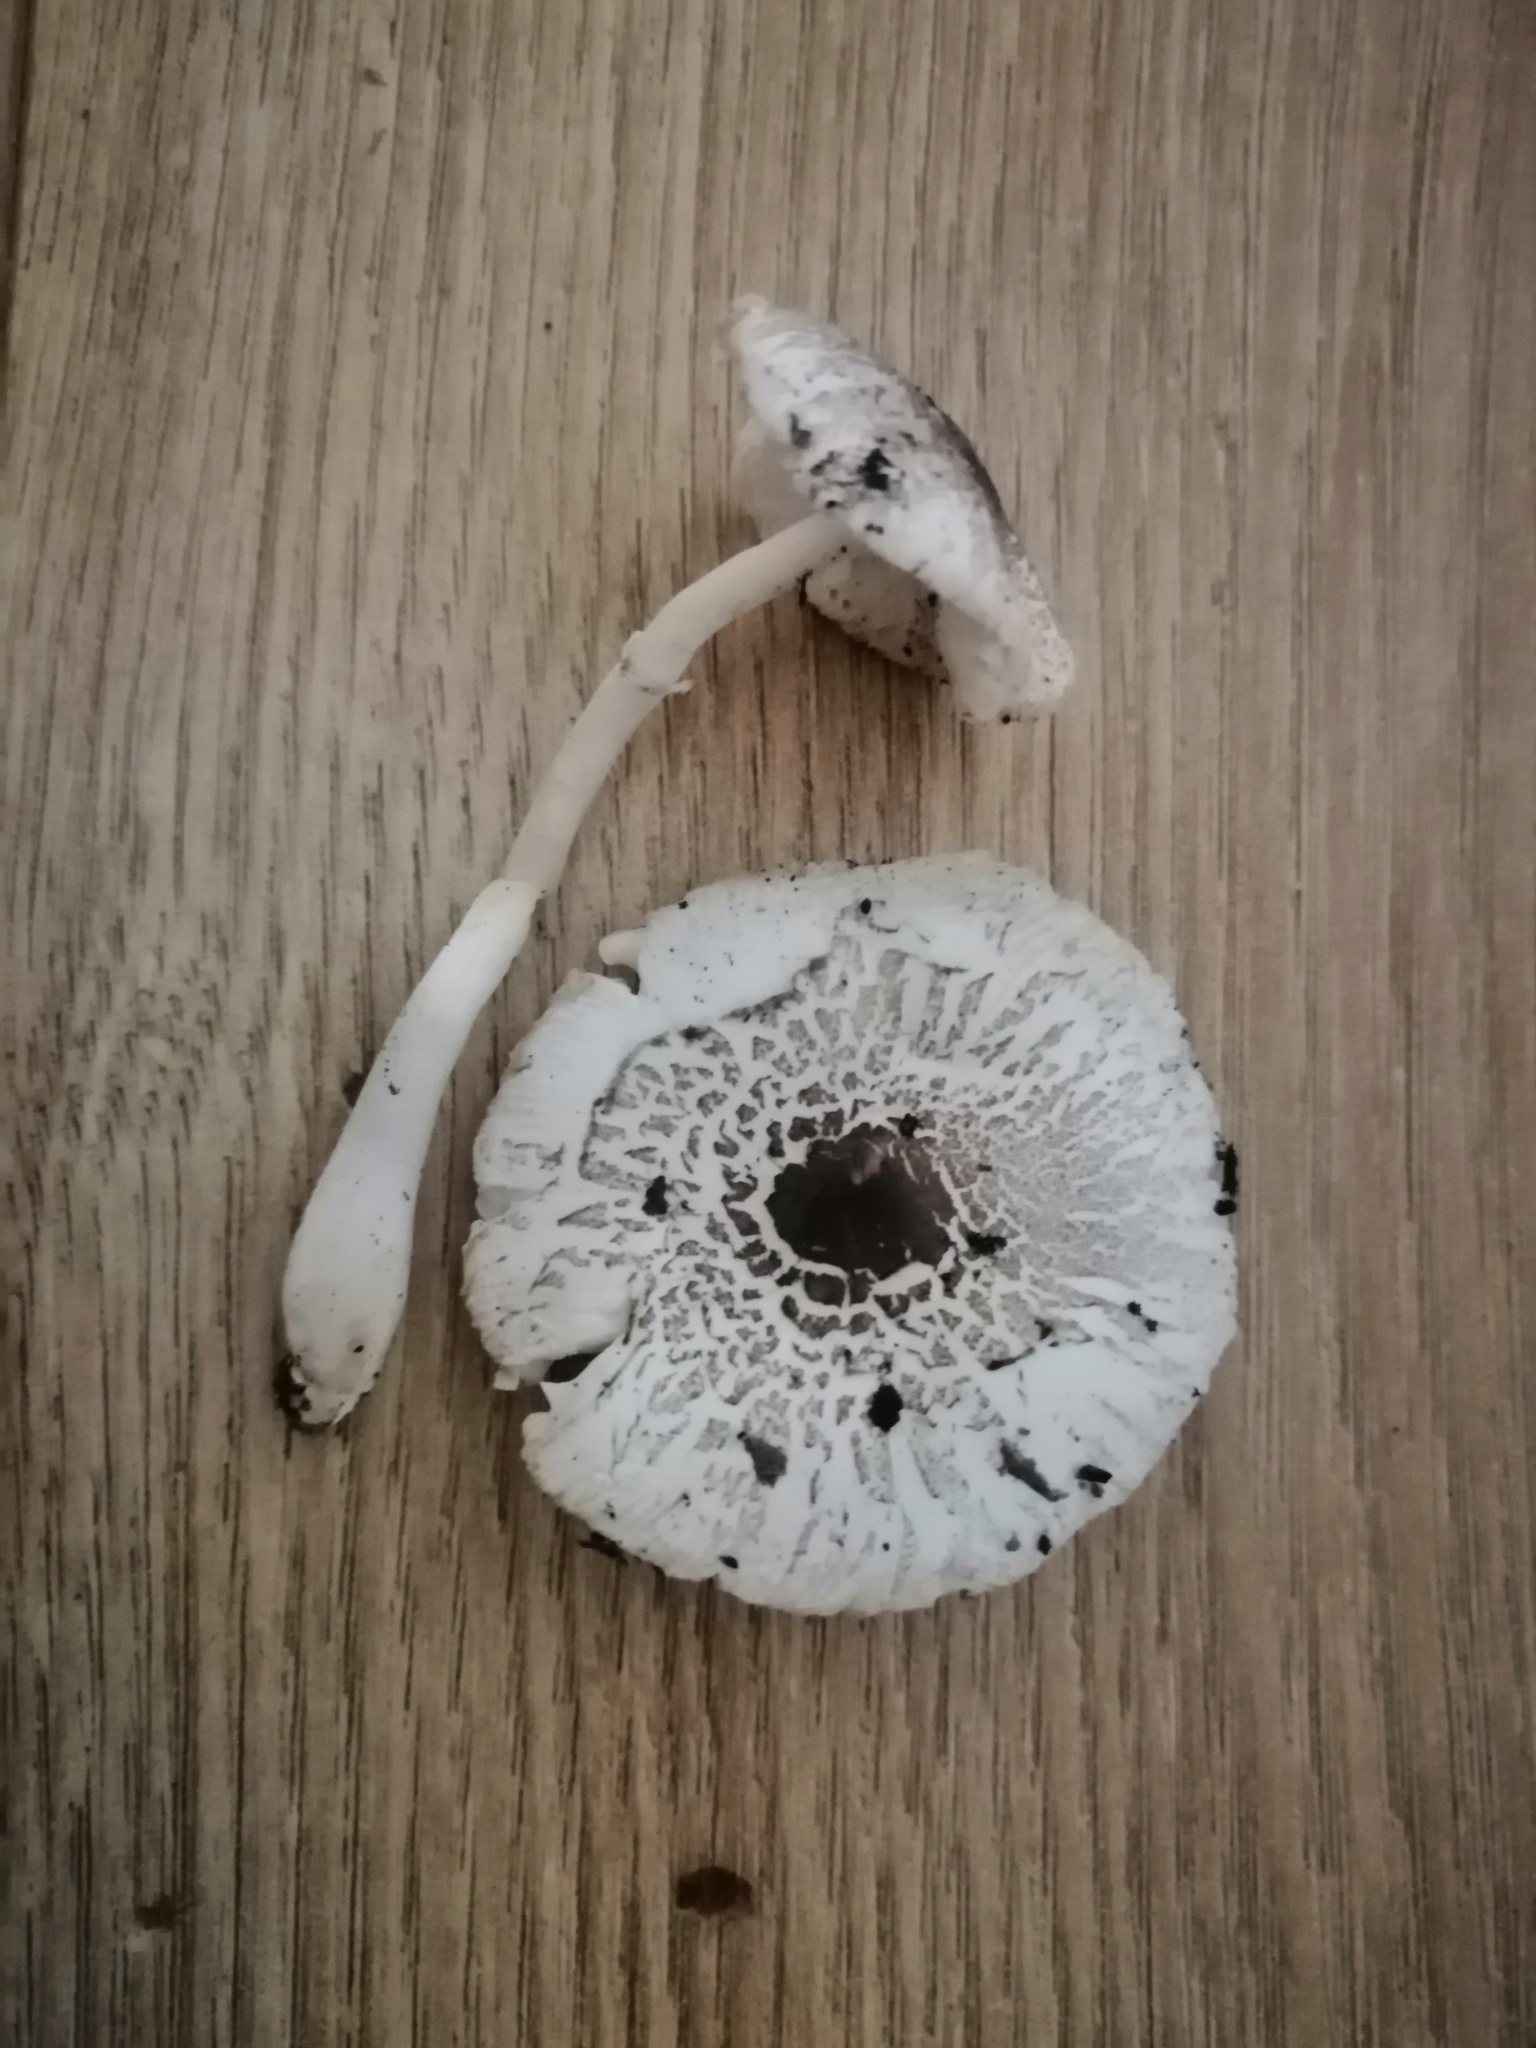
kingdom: Fungi
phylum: Basidiomycota
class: Agaricomycetes
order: Agaricales
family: Agaricaceae
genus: Leucocoprinus
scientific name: Leucocoprinus brebissonii
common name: Skullcap dapperling
